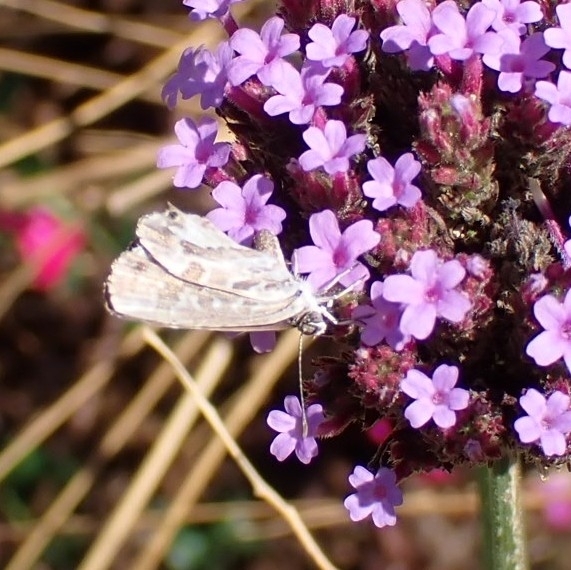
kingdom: Animalia
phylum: Arthropoda
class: Insecta
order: Lepidoptera
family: Lycaenidae
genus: Cacyreus
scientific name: Cacyreus marshalli
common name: Geranium bronze
